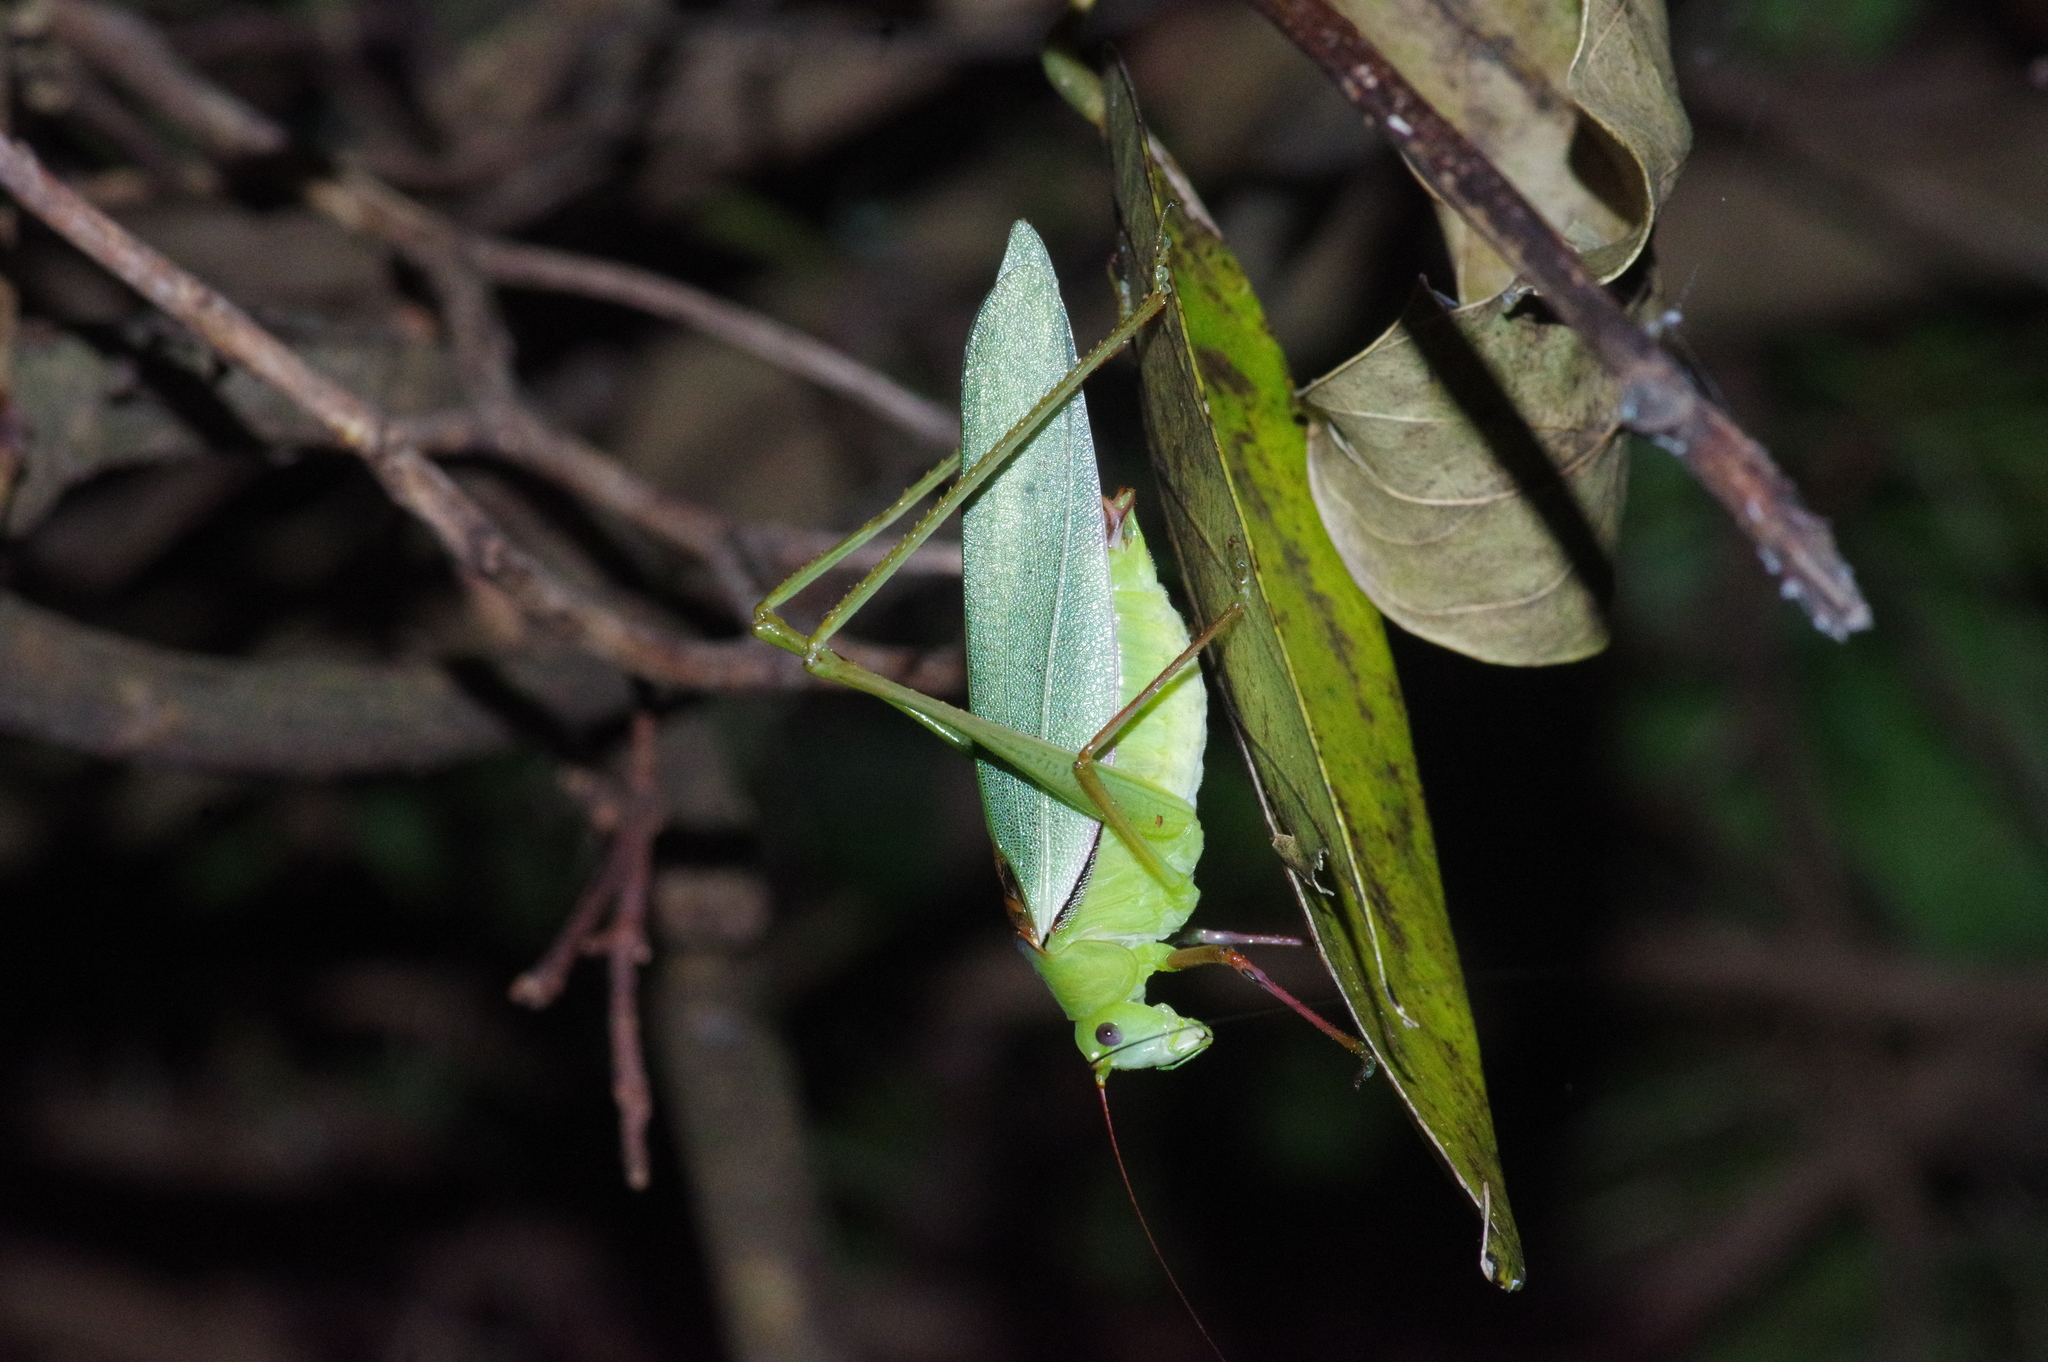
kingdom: Animalia
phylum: Arthropoda
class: Insecta
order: Orthoptera
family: Tettigoniidae
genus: Psyrana
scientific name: Psyrana ryukyuensis
